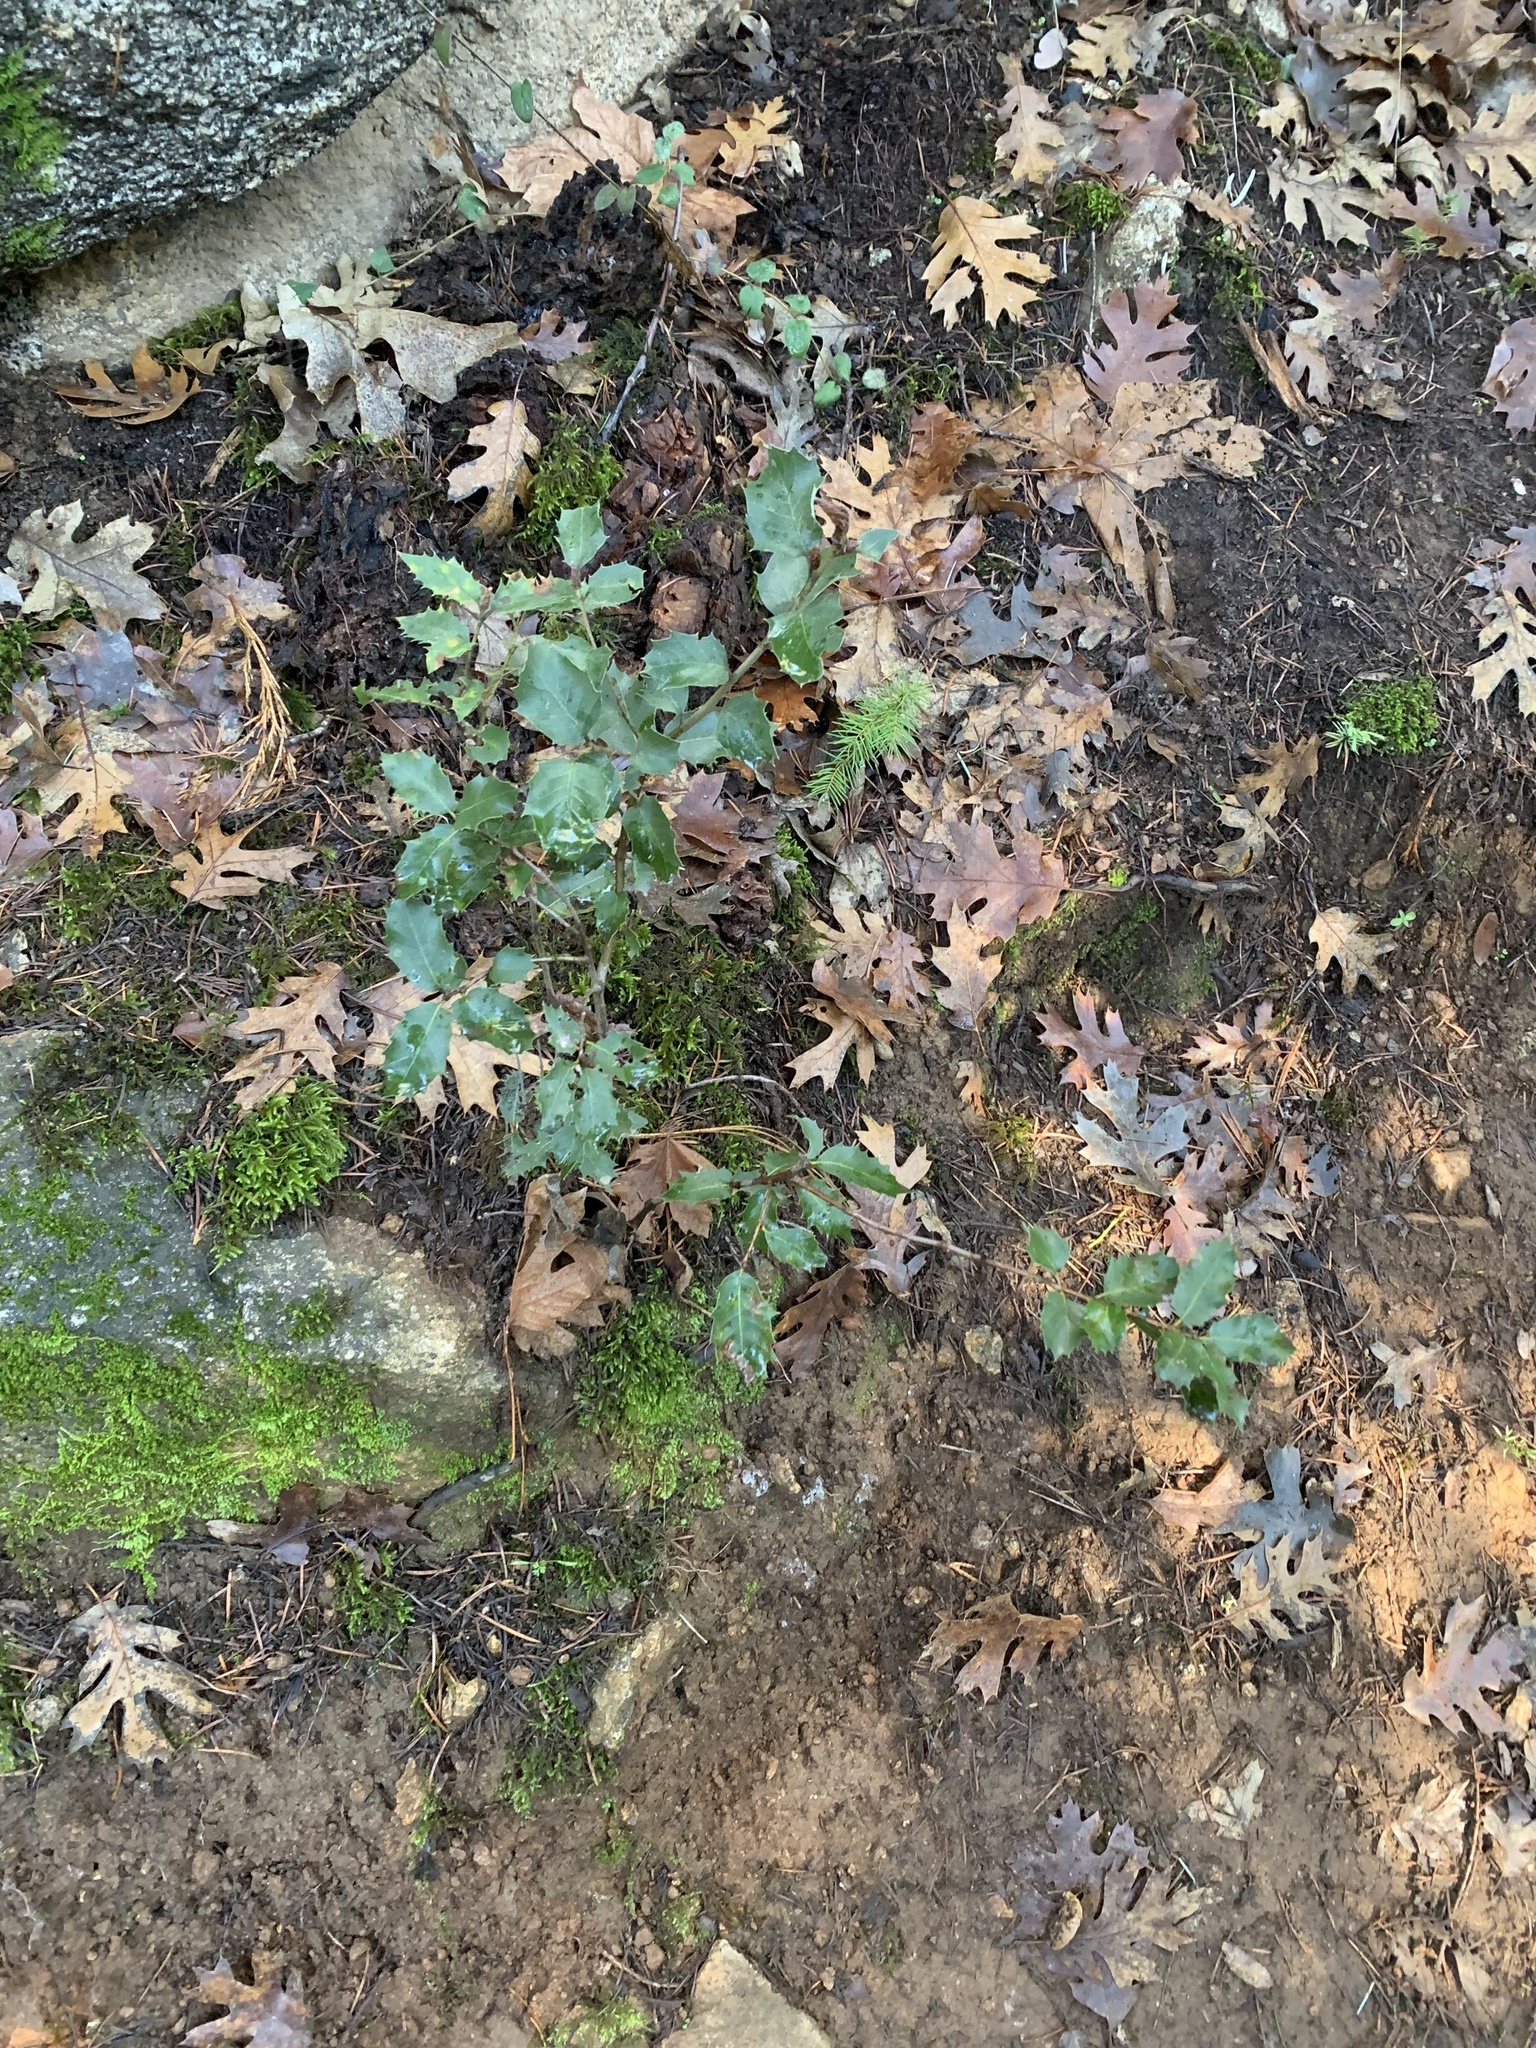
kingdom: Plantae
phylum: Tracheophyta
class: Magnoliopsida
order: Fagales
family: Fagaceae
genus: Quercus
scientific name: Quercus chrysolepis
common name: Canyon live oak
